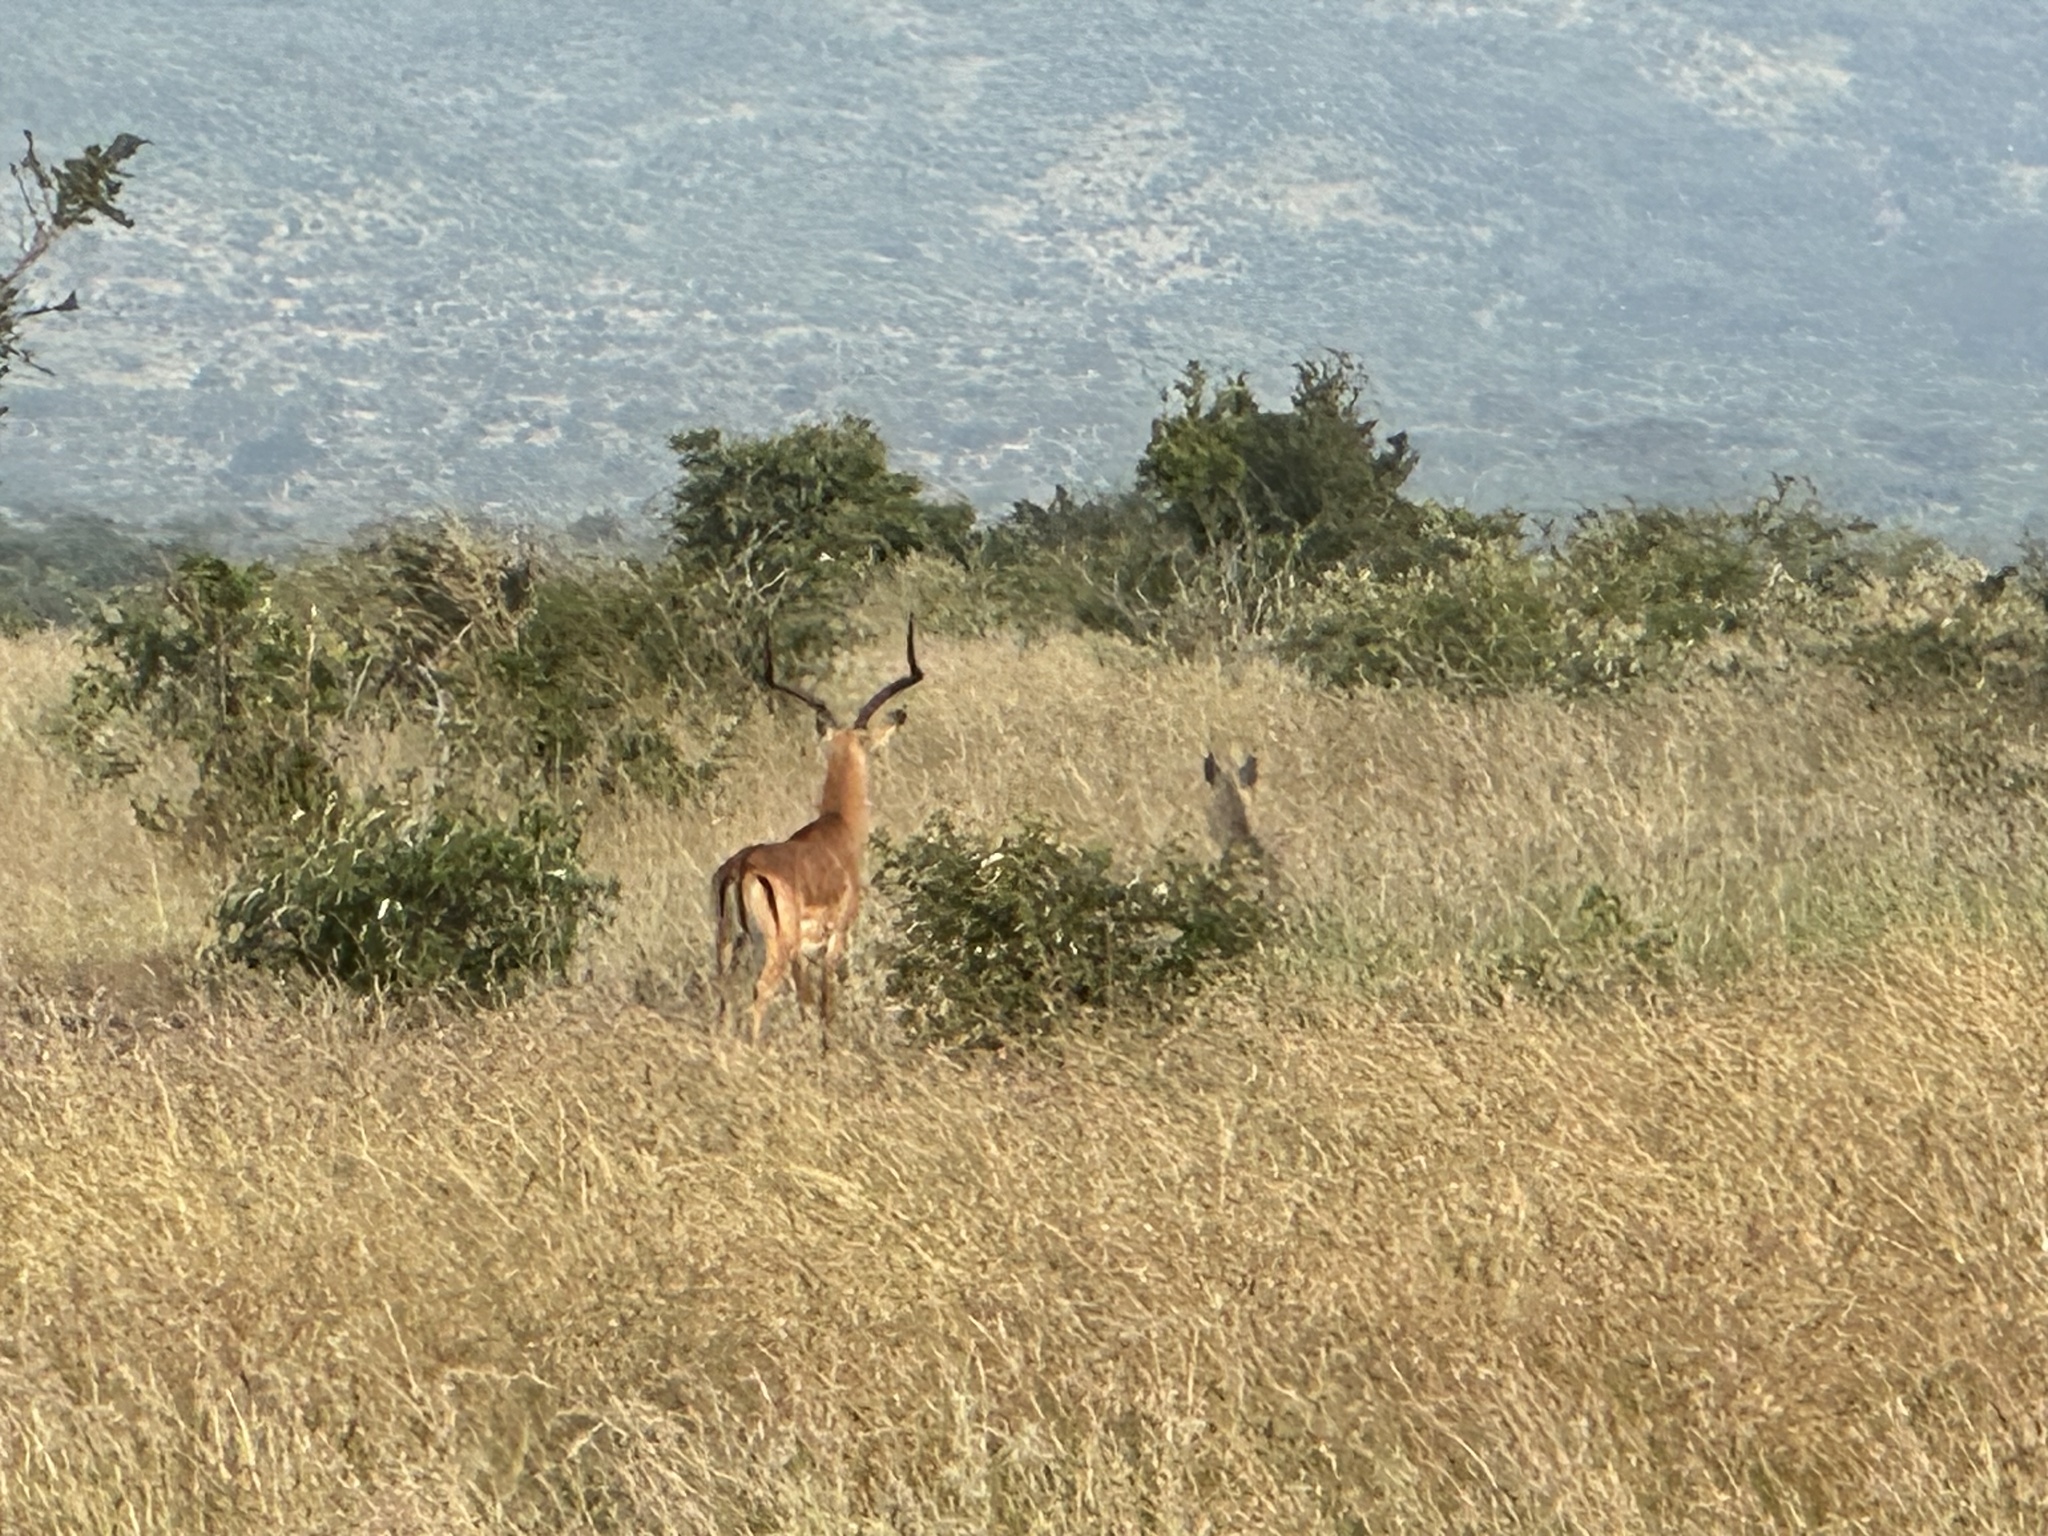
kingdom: Animalia
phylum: Chordata
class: Mammalia
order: Artiodactyla
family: Bovidae
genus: Aepyceros
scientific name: Aepyceros melampus
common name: Impala
